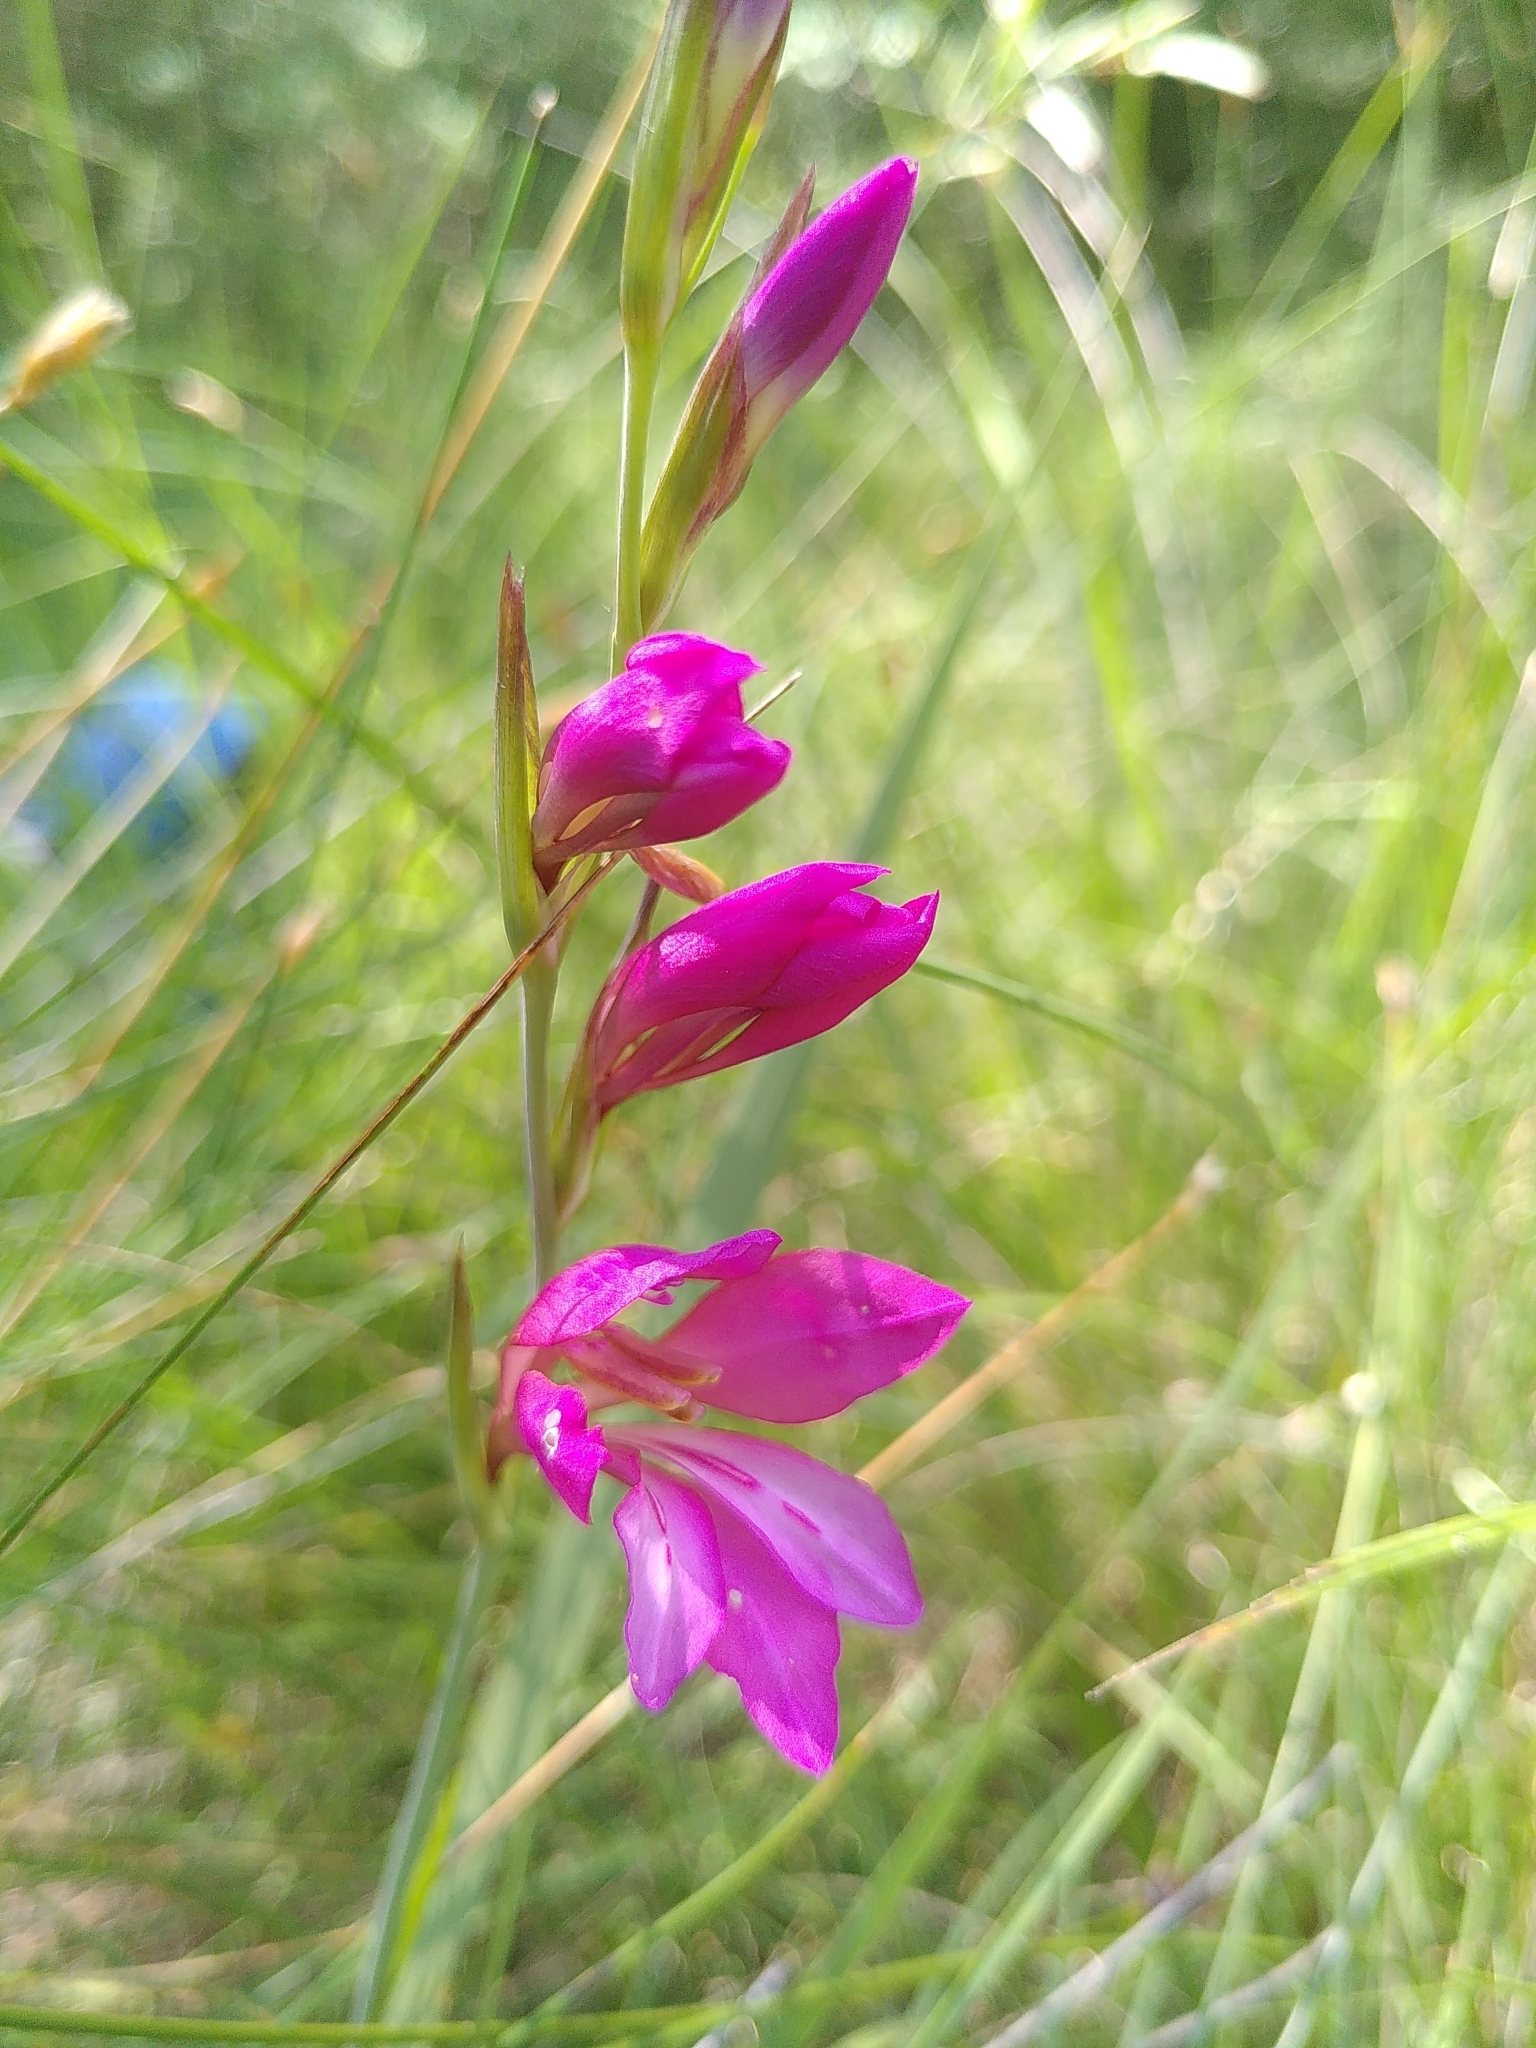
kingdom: Plantae
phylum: Tracheophyta
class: Liliopsida
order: Asparagales
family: Iridaceae
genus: Gladiolus
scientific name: Gladiolus dubius
